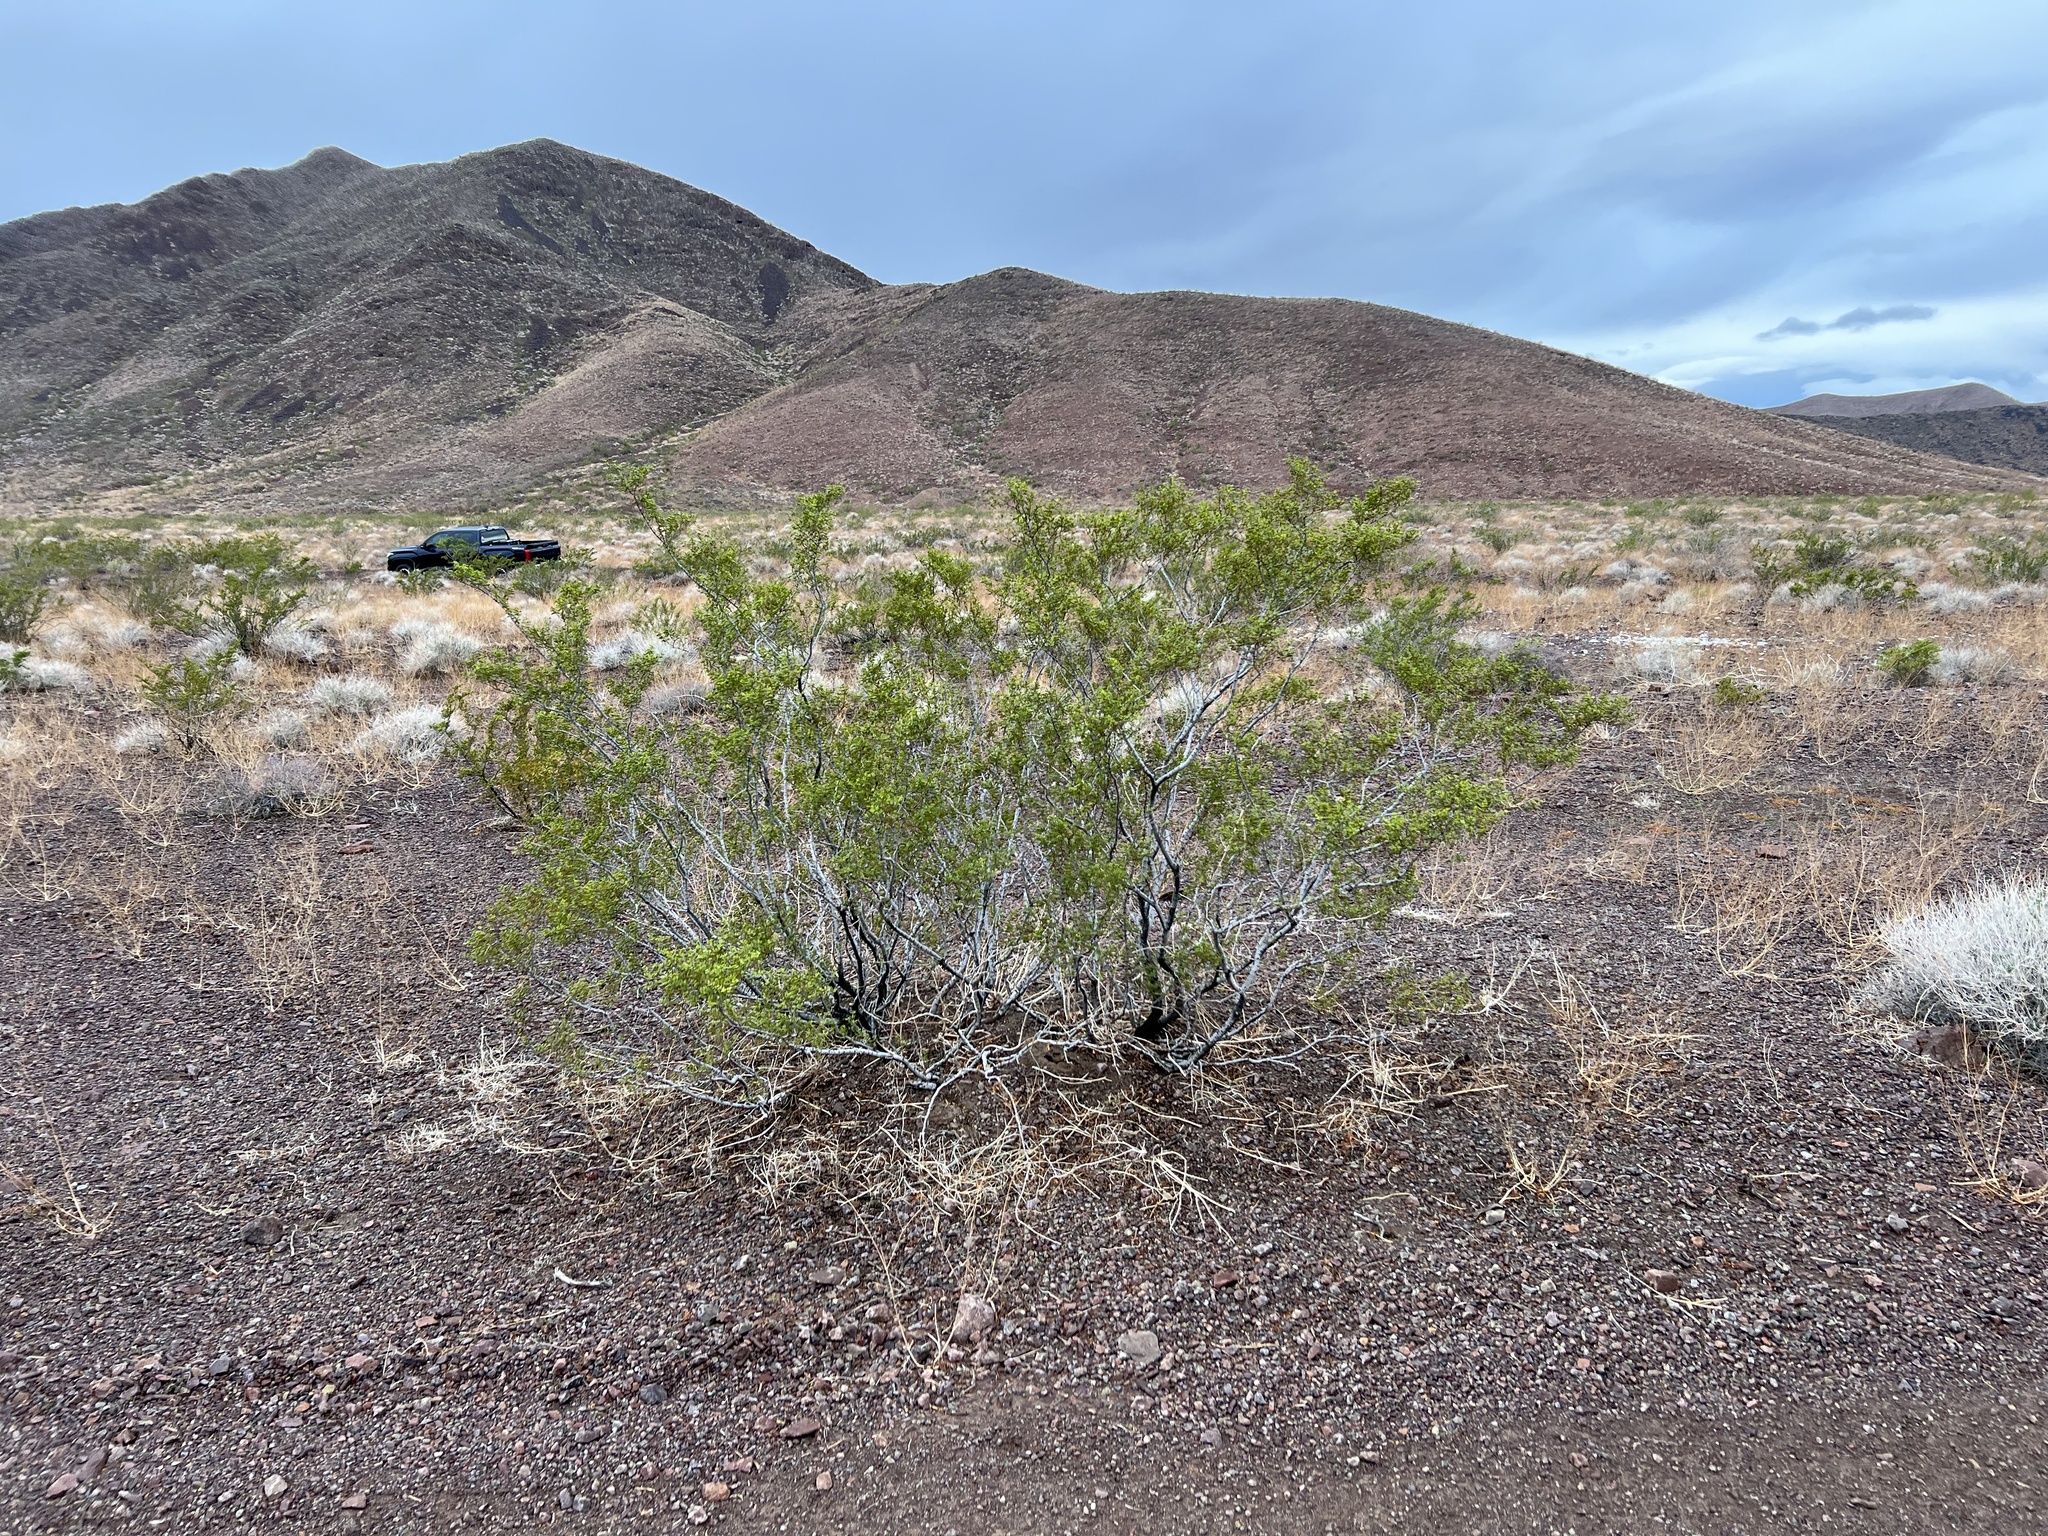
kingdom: Plantae
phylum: Tracheophyta
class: Magnoliopsida
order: Zygophyllales
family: Zygophyllaceae
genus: Larrea
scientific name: Larrea tridentata
